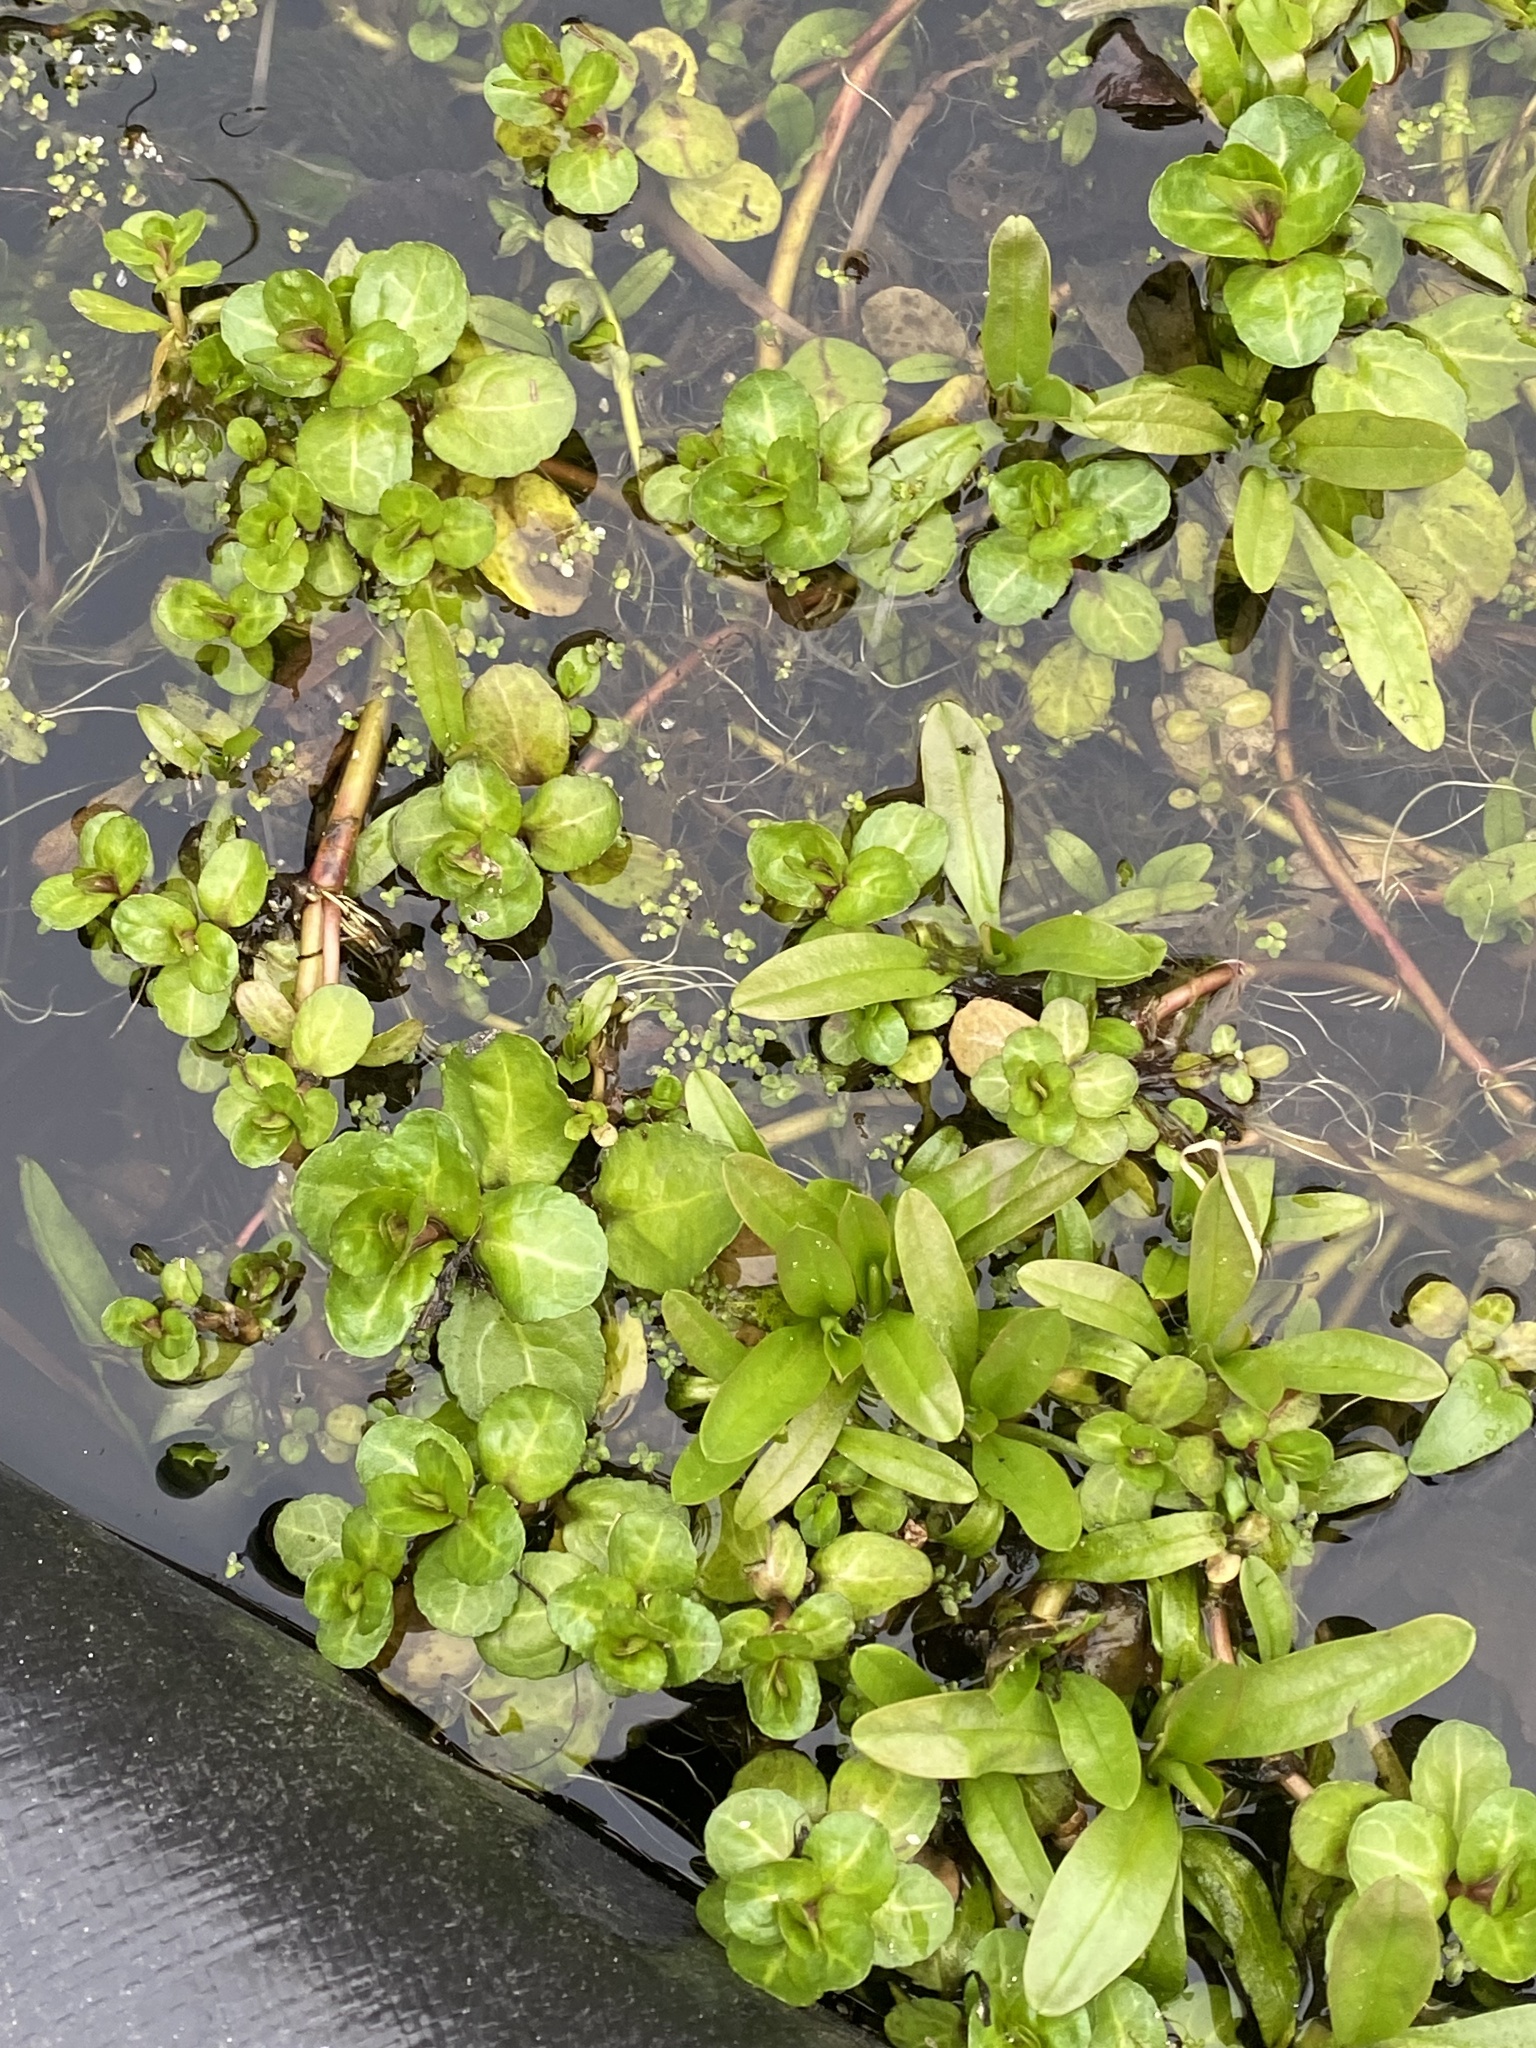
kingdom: Plantae
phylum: Tracheophyta
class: Magnoliopsida
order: Lamiales
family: Plantaginaceae
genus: Veronica
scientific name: Veronica beccabunga
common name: Brooklime
